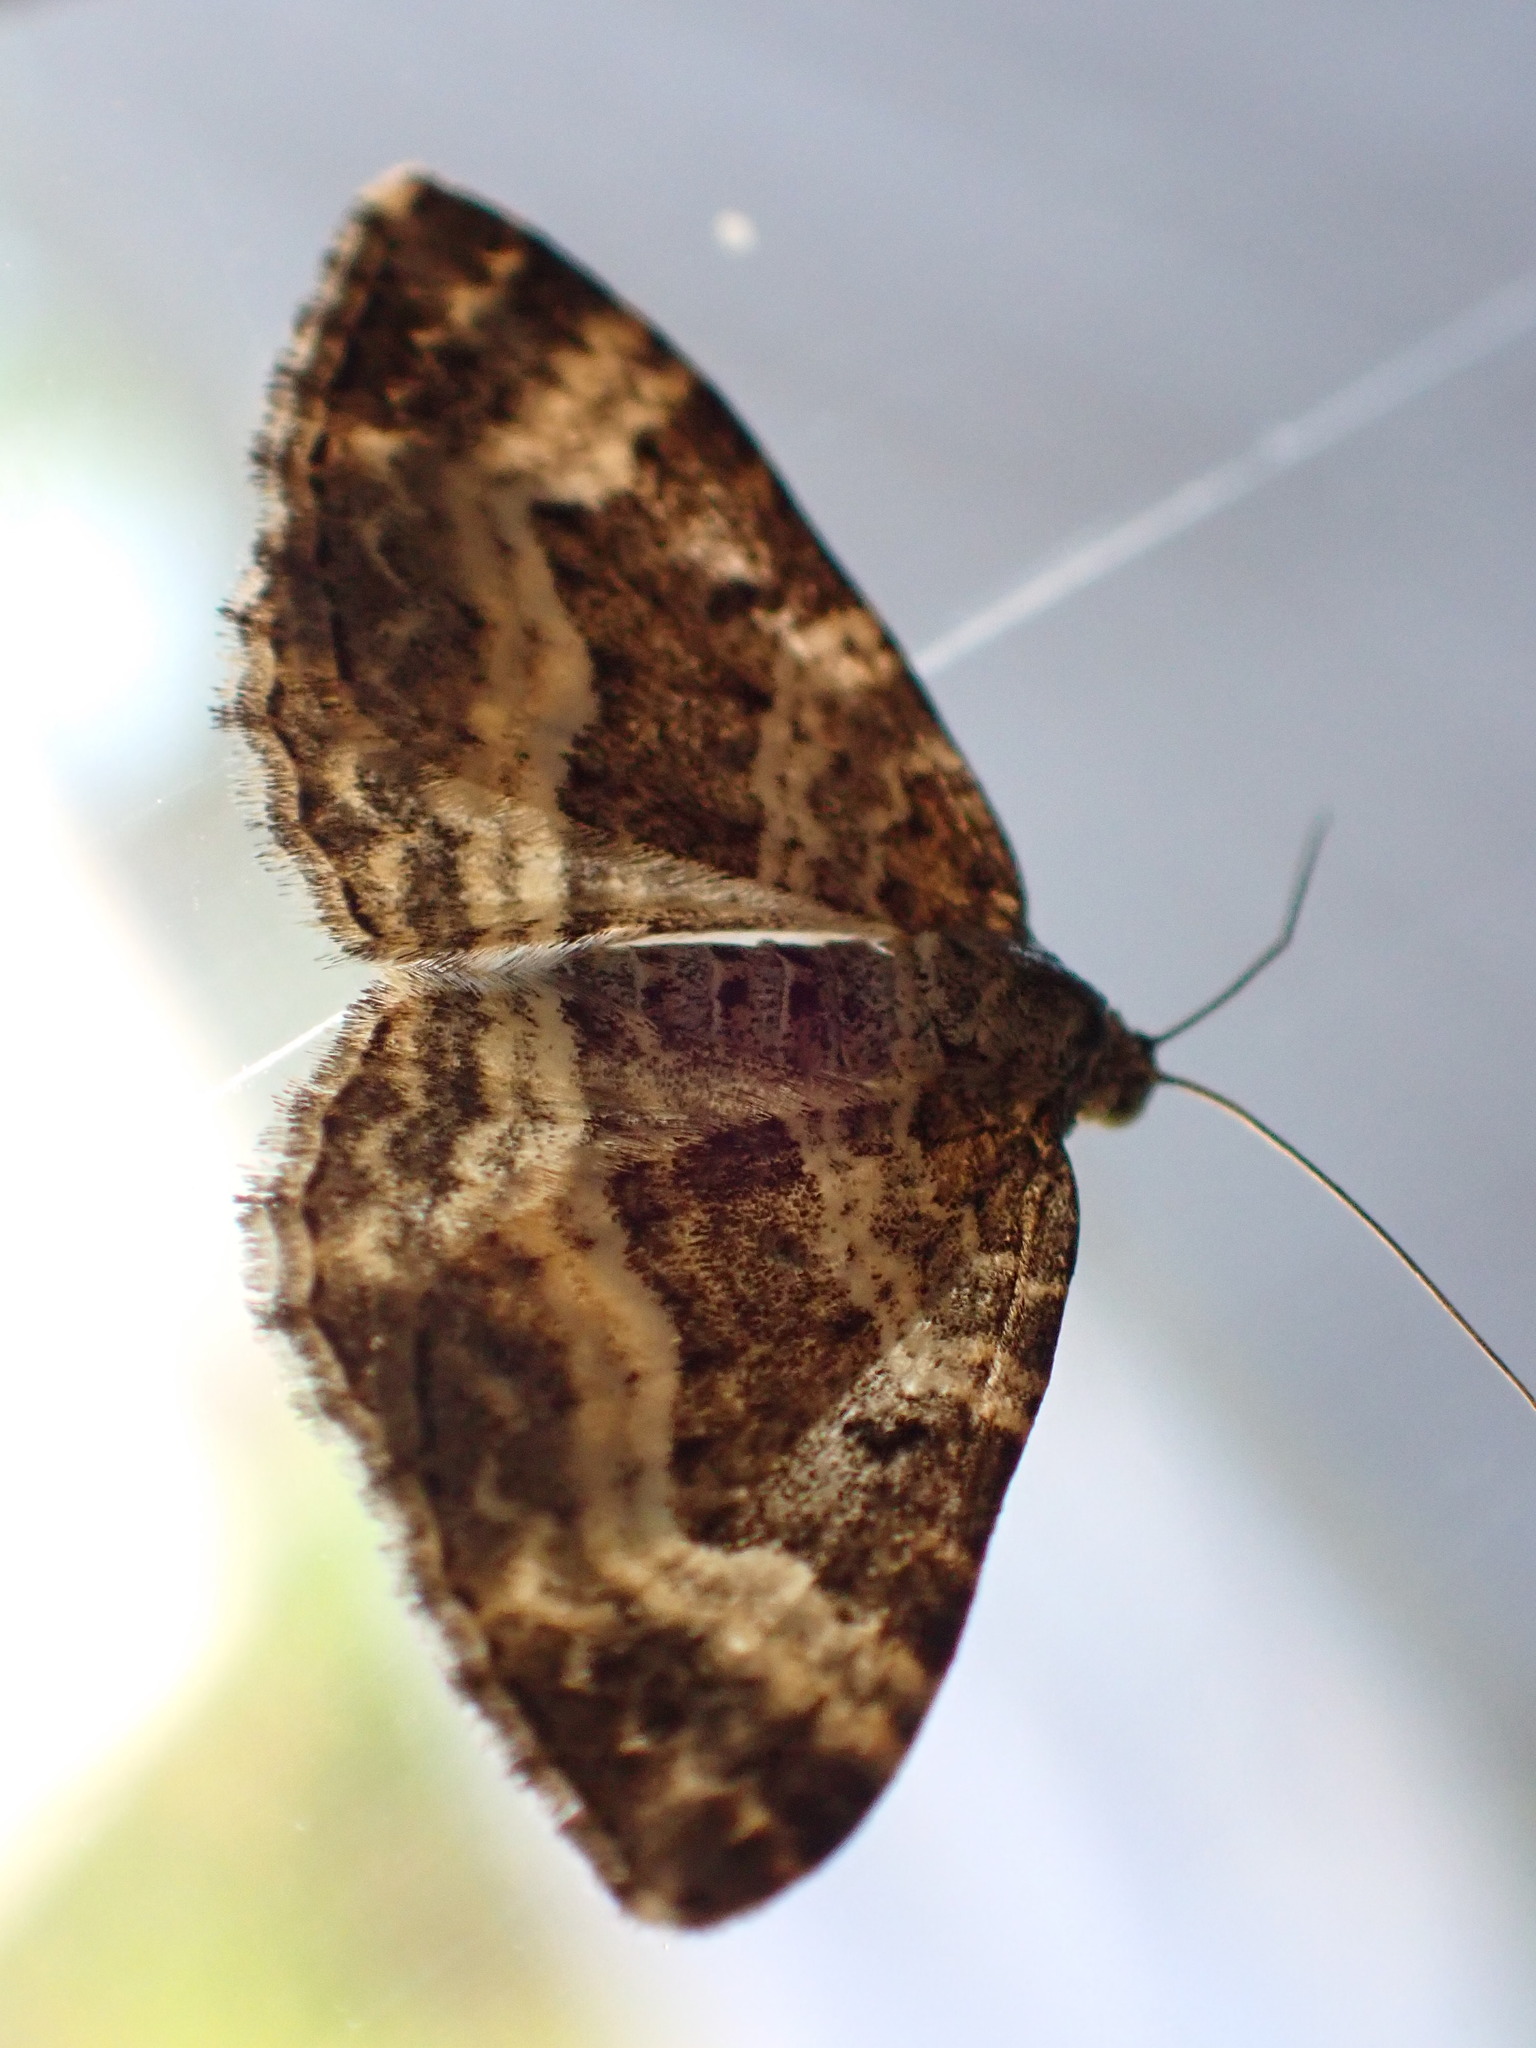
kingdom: Animalia
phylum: Arthropoda
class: Insecta
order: Lepidoptera
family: Geometridae
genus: Epirrhoe
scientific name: Epirrhoe alternata
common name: Common carpet
